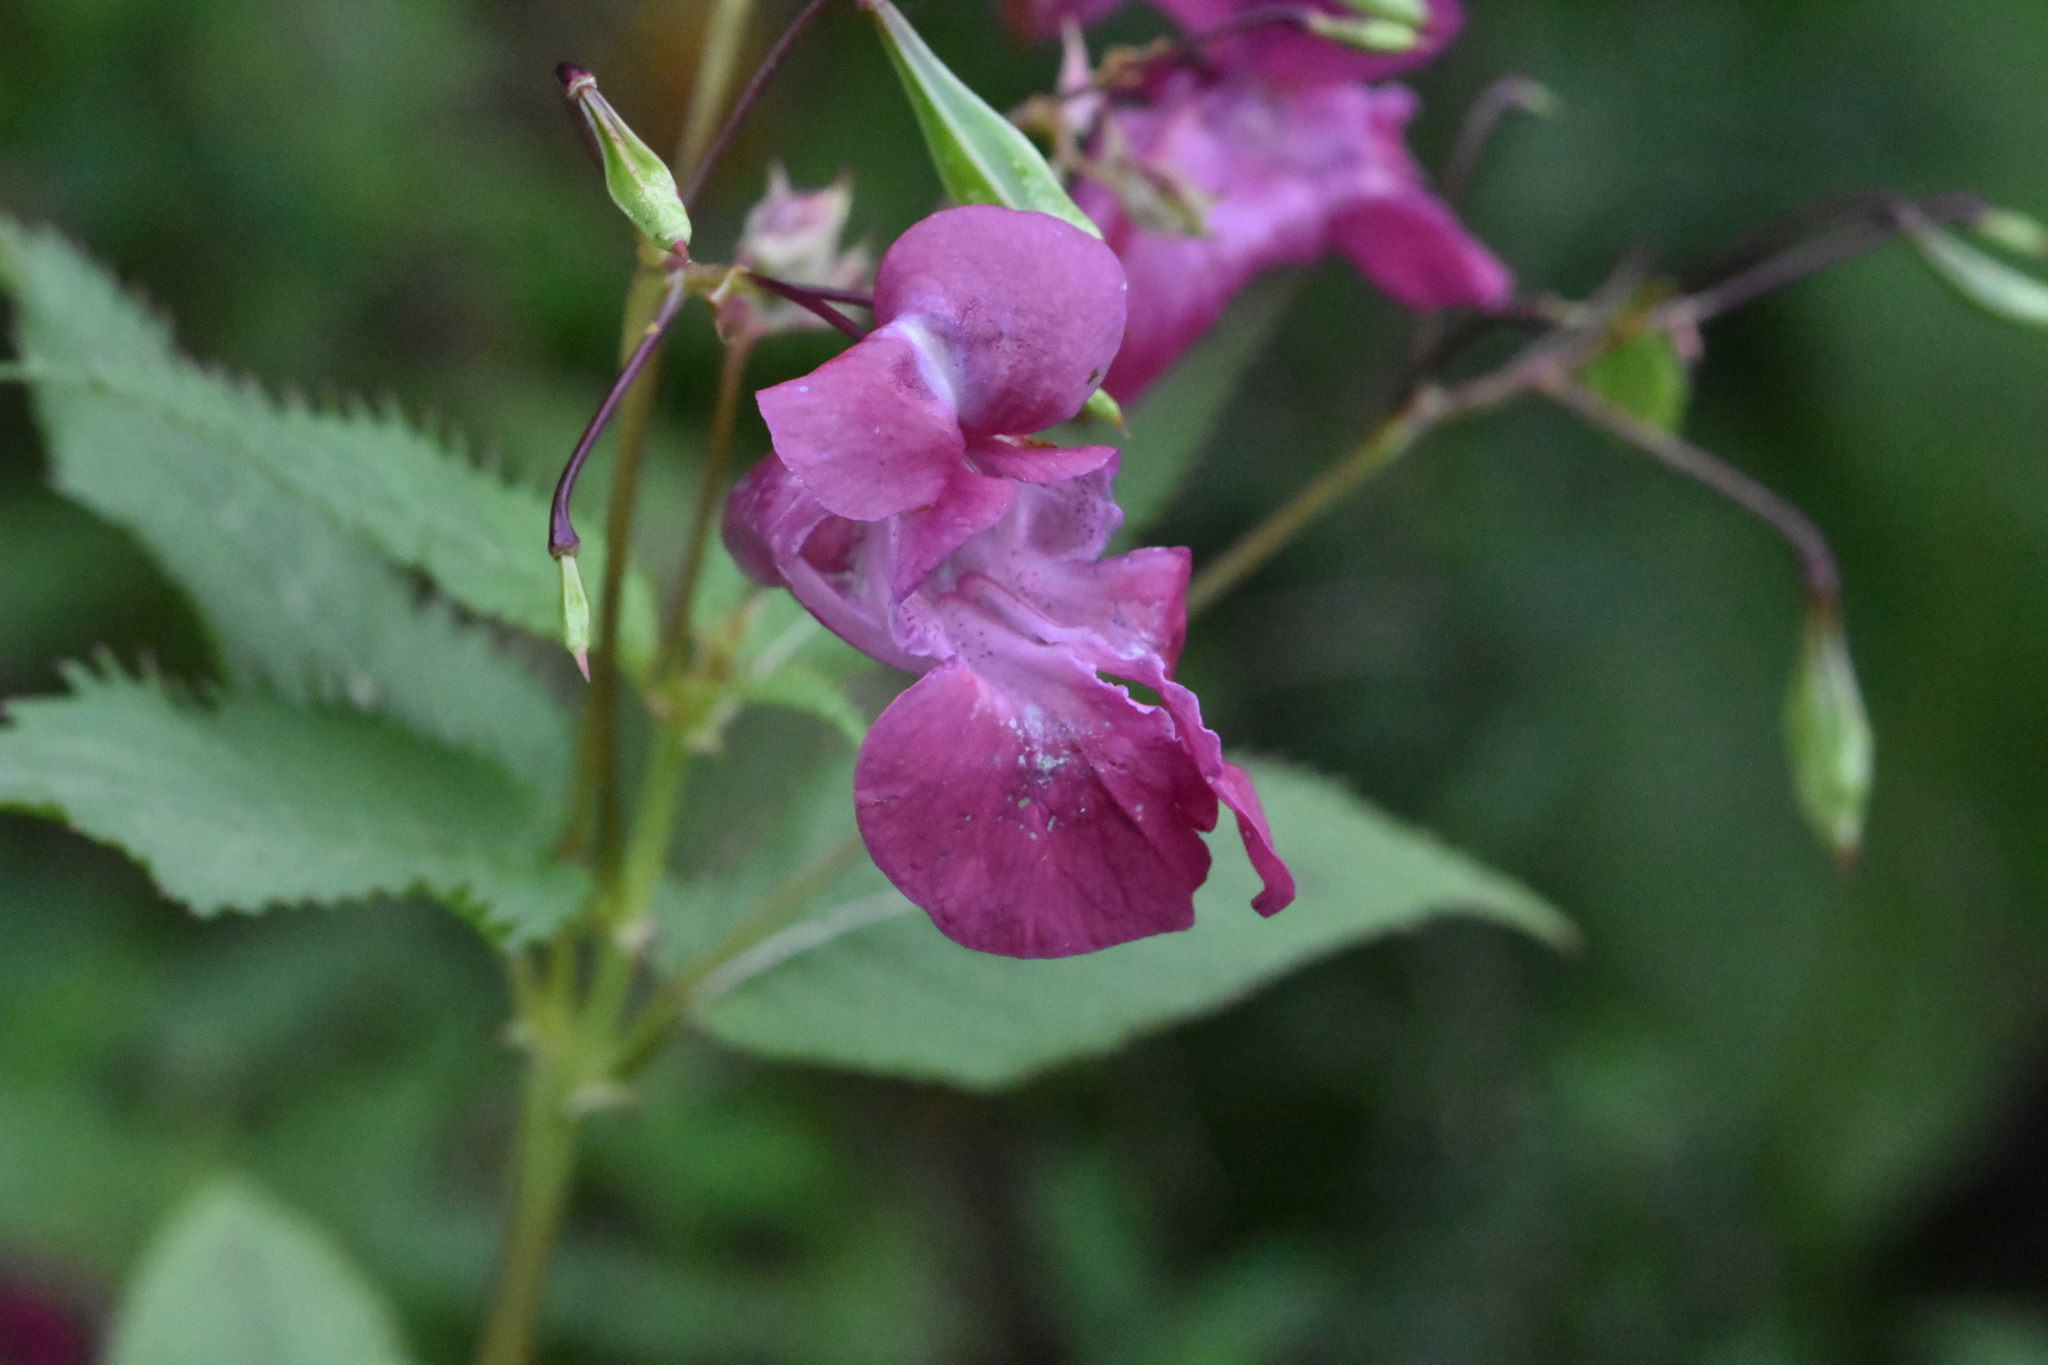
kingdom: Plantae
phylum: Tracheophyta
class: Magnoliopsida
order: Ericales
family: Balsaminaceae
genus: Impatiens
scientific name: Impatiens glandulifera
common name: Himalayan balsam
